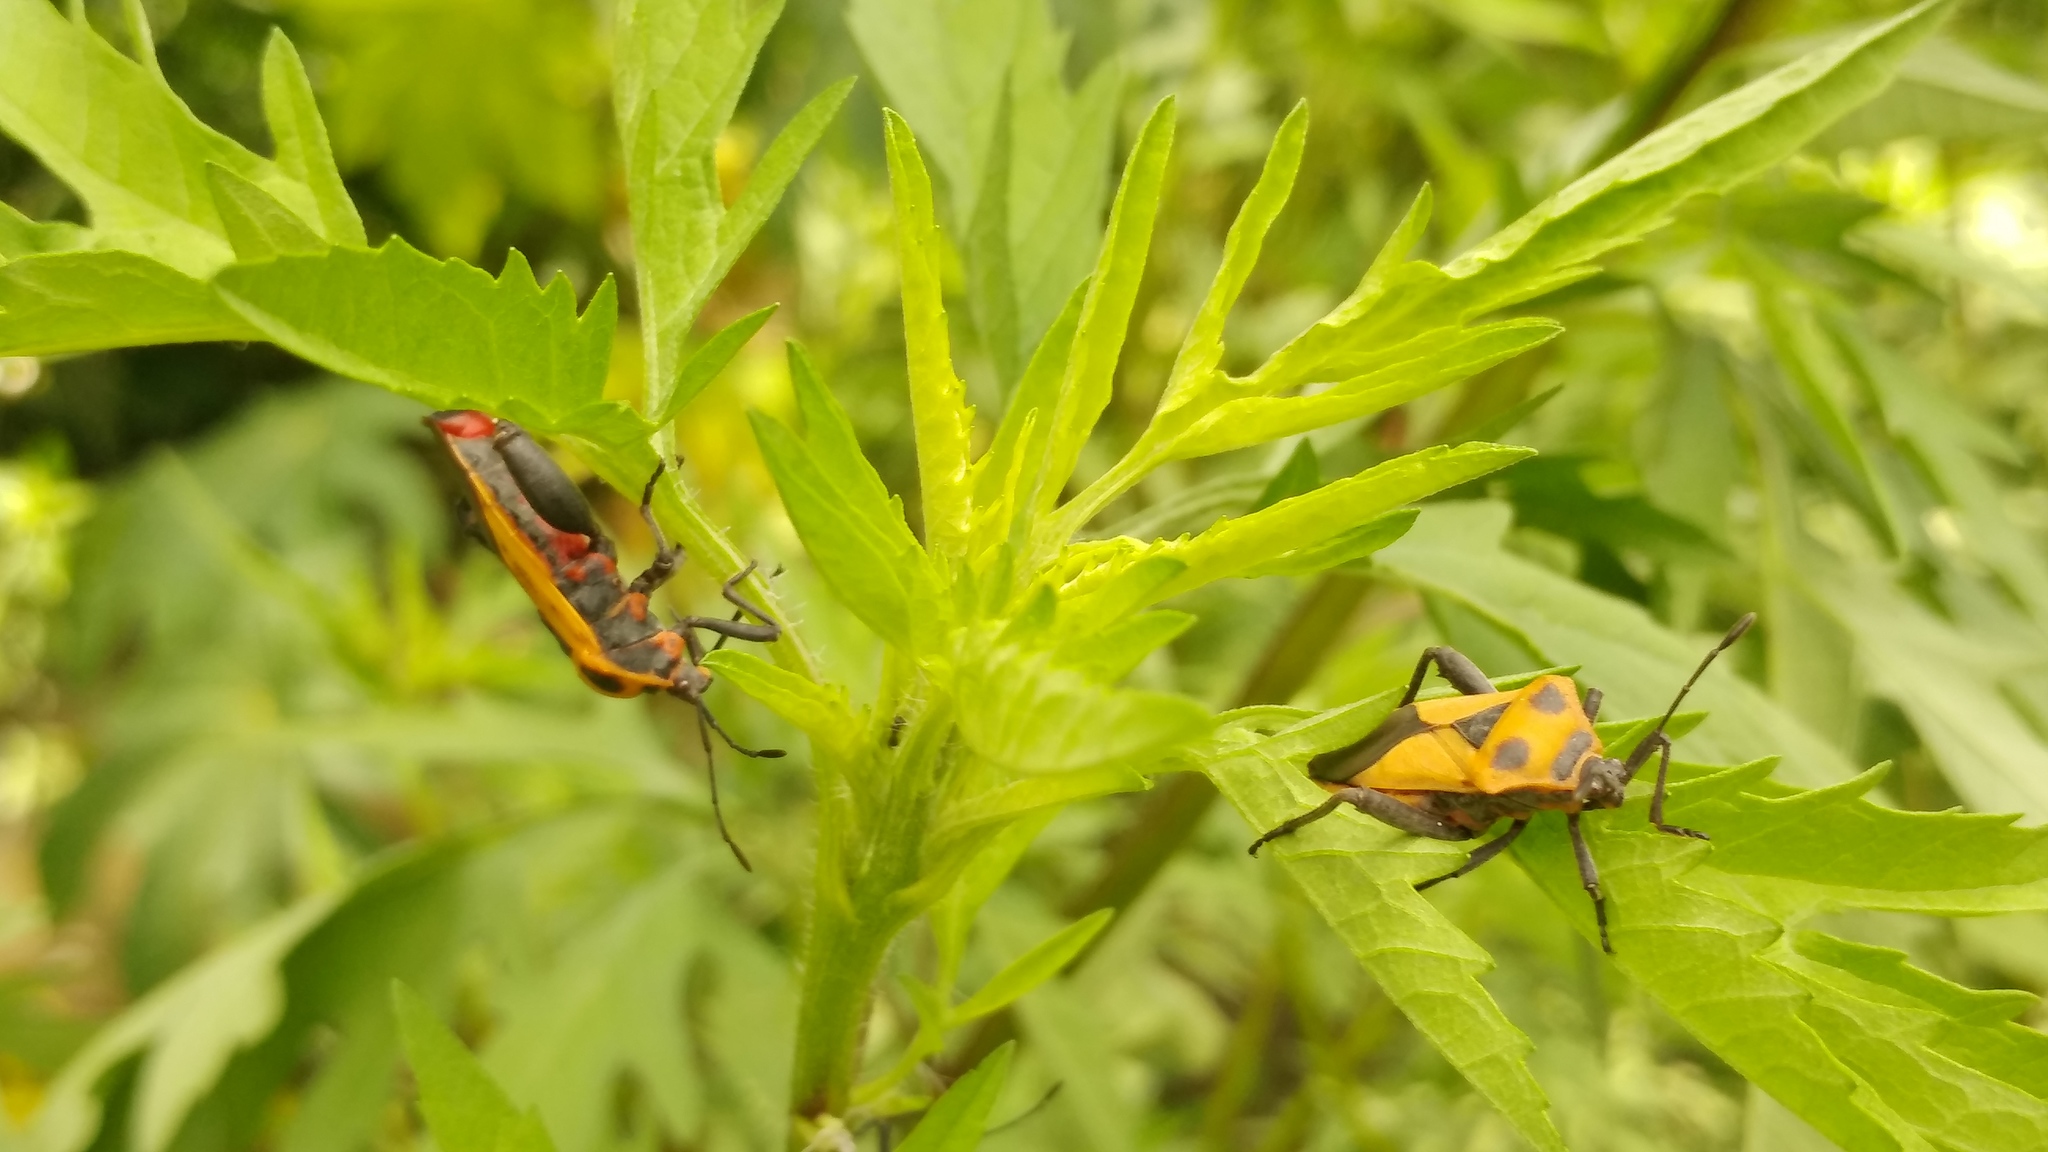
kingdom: Animalia
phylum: Arthropoda
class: Insecta
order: Hemiptera
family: Coreidae
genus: Sagotylus
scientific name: Sagotylus confluens
